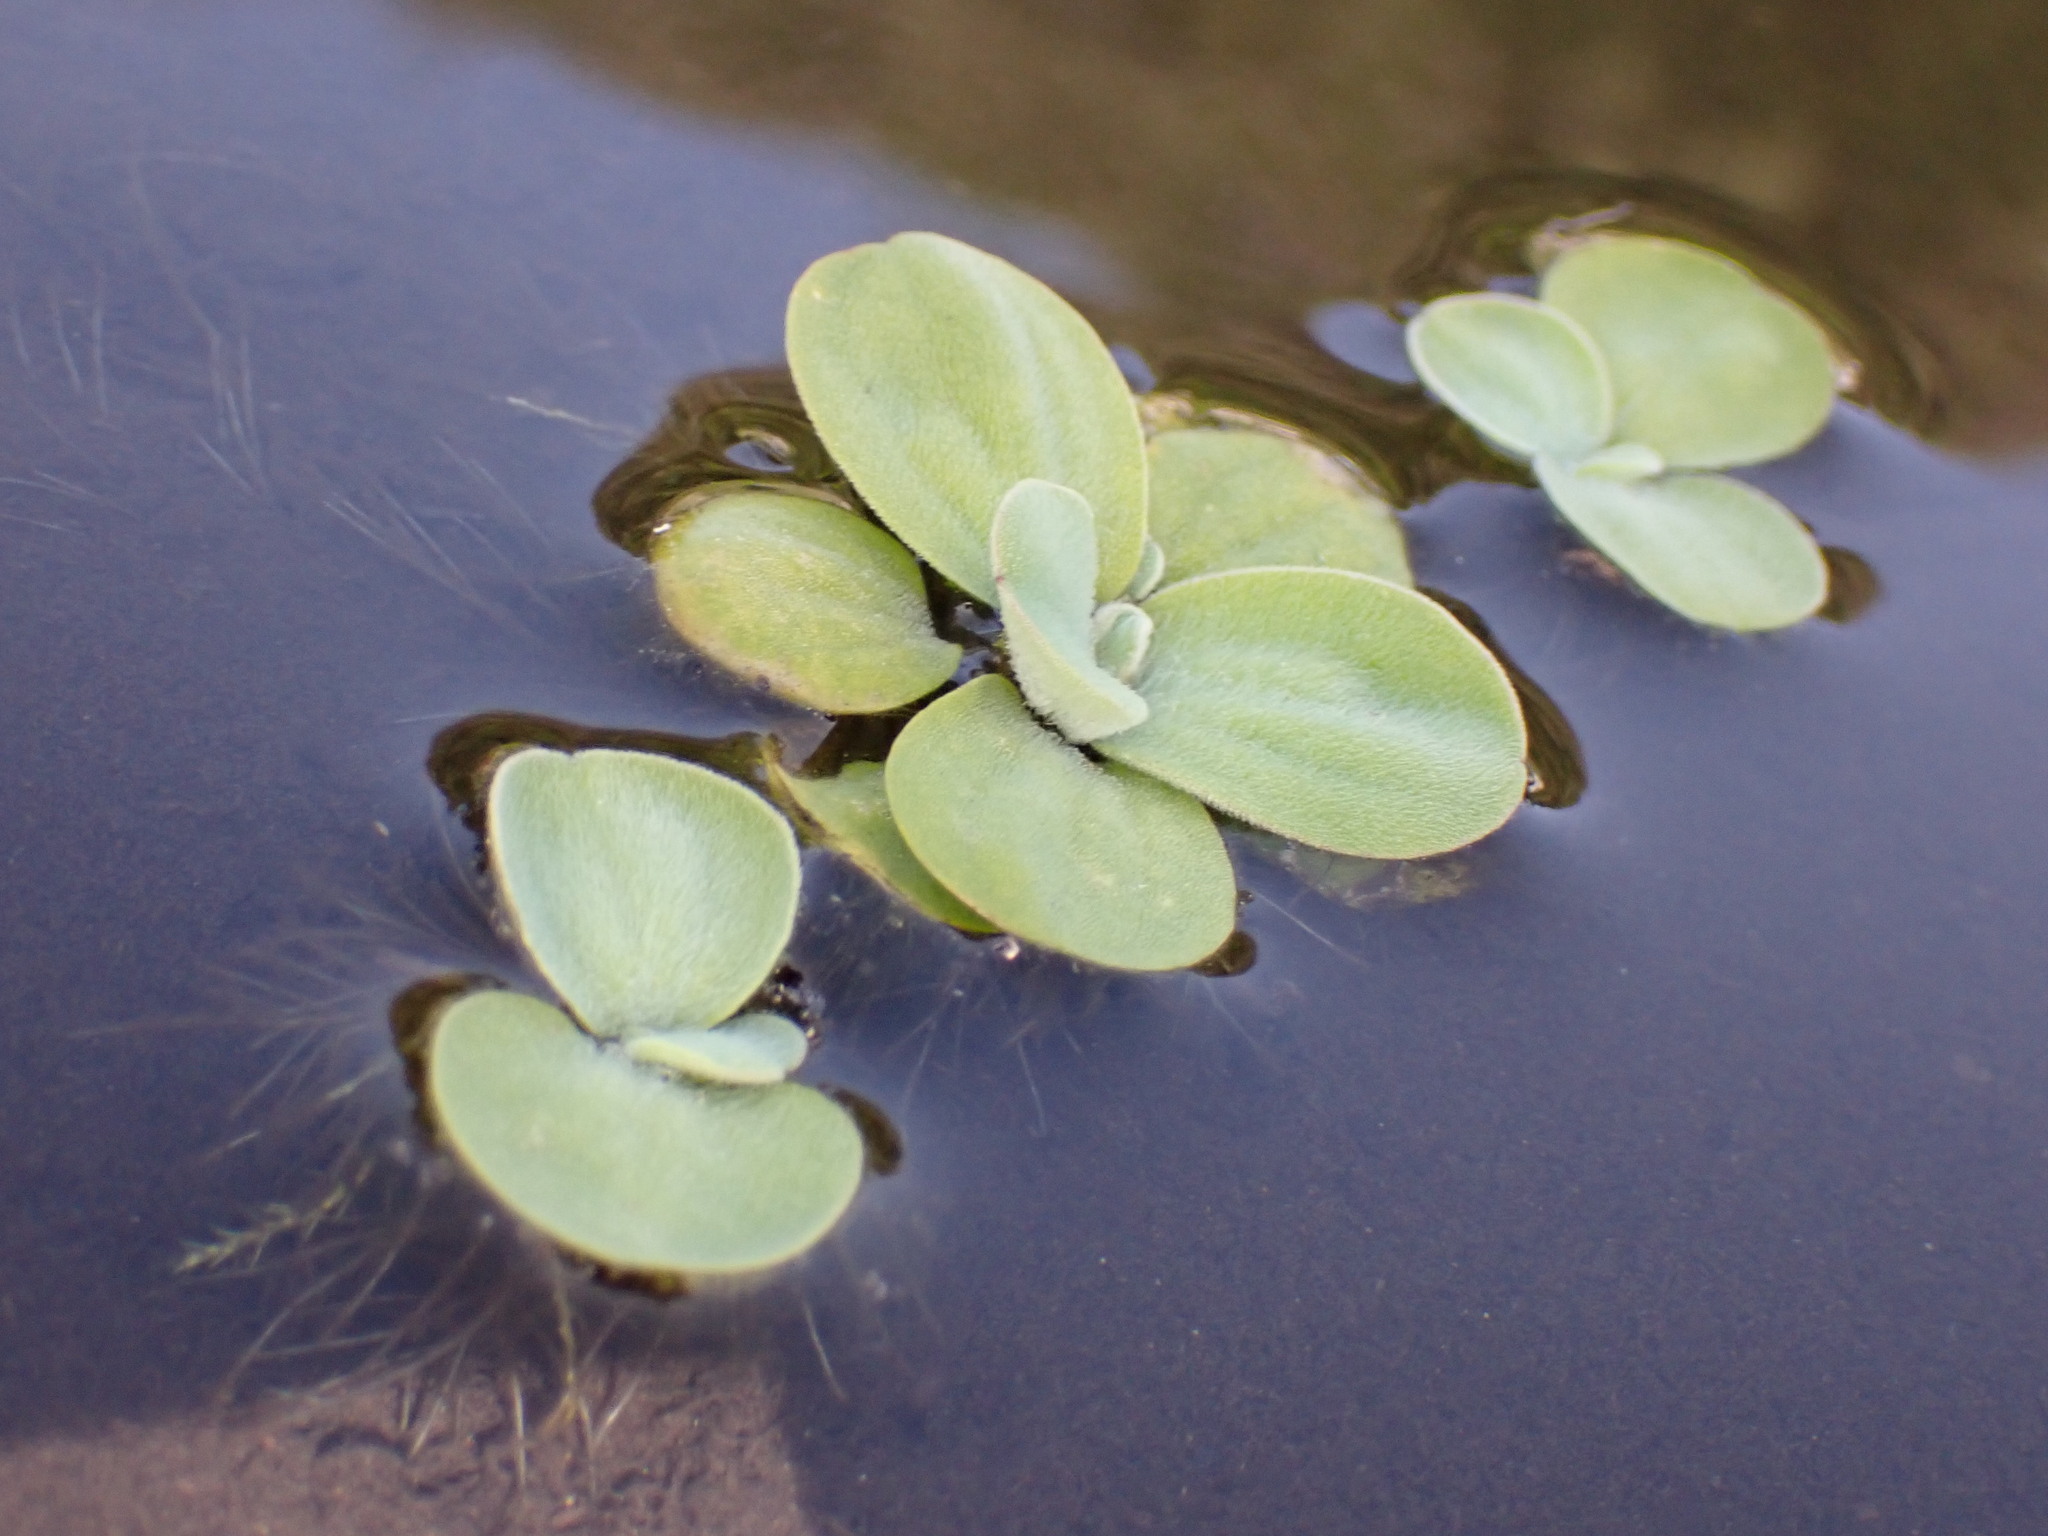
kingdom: Plantae
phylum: Tracheophyta
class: Liliopsida
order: Alismatales
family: Araceae
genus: Pistia
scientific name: Pistia stratiotes
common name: Water lettuce
